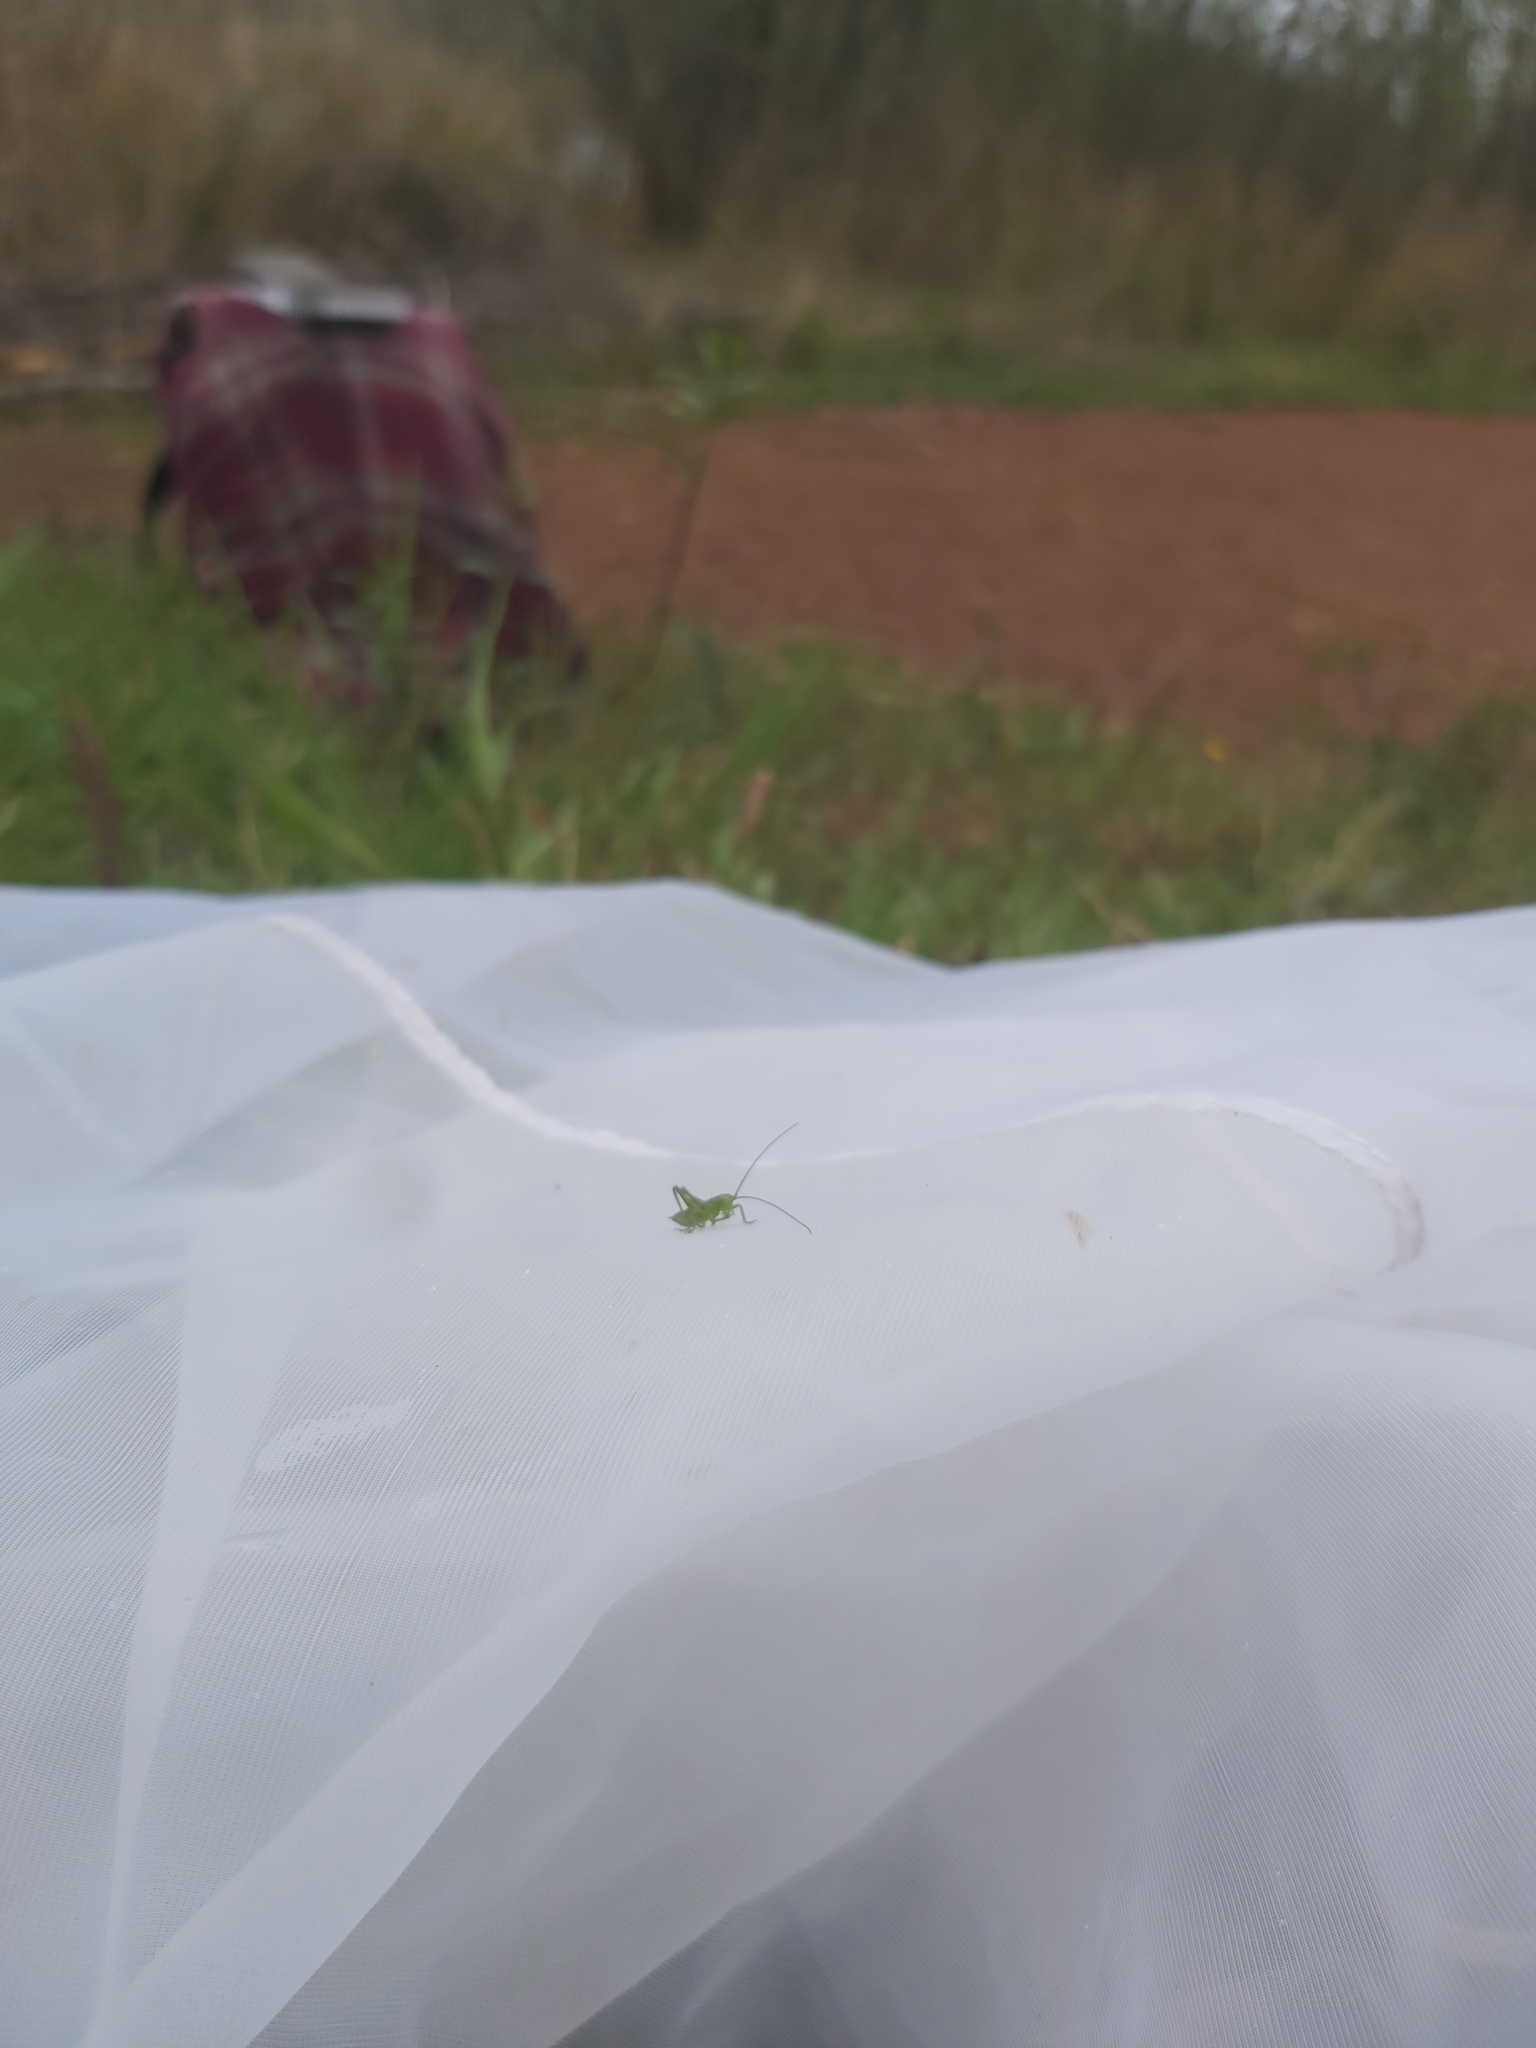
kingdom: Animalia
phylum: Arthropoda
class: Insecta
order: Orthoptera
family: Tettigoniidae
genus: Tettigonia
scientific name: Tettigonia viridissima
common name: Great green bush-cricket
